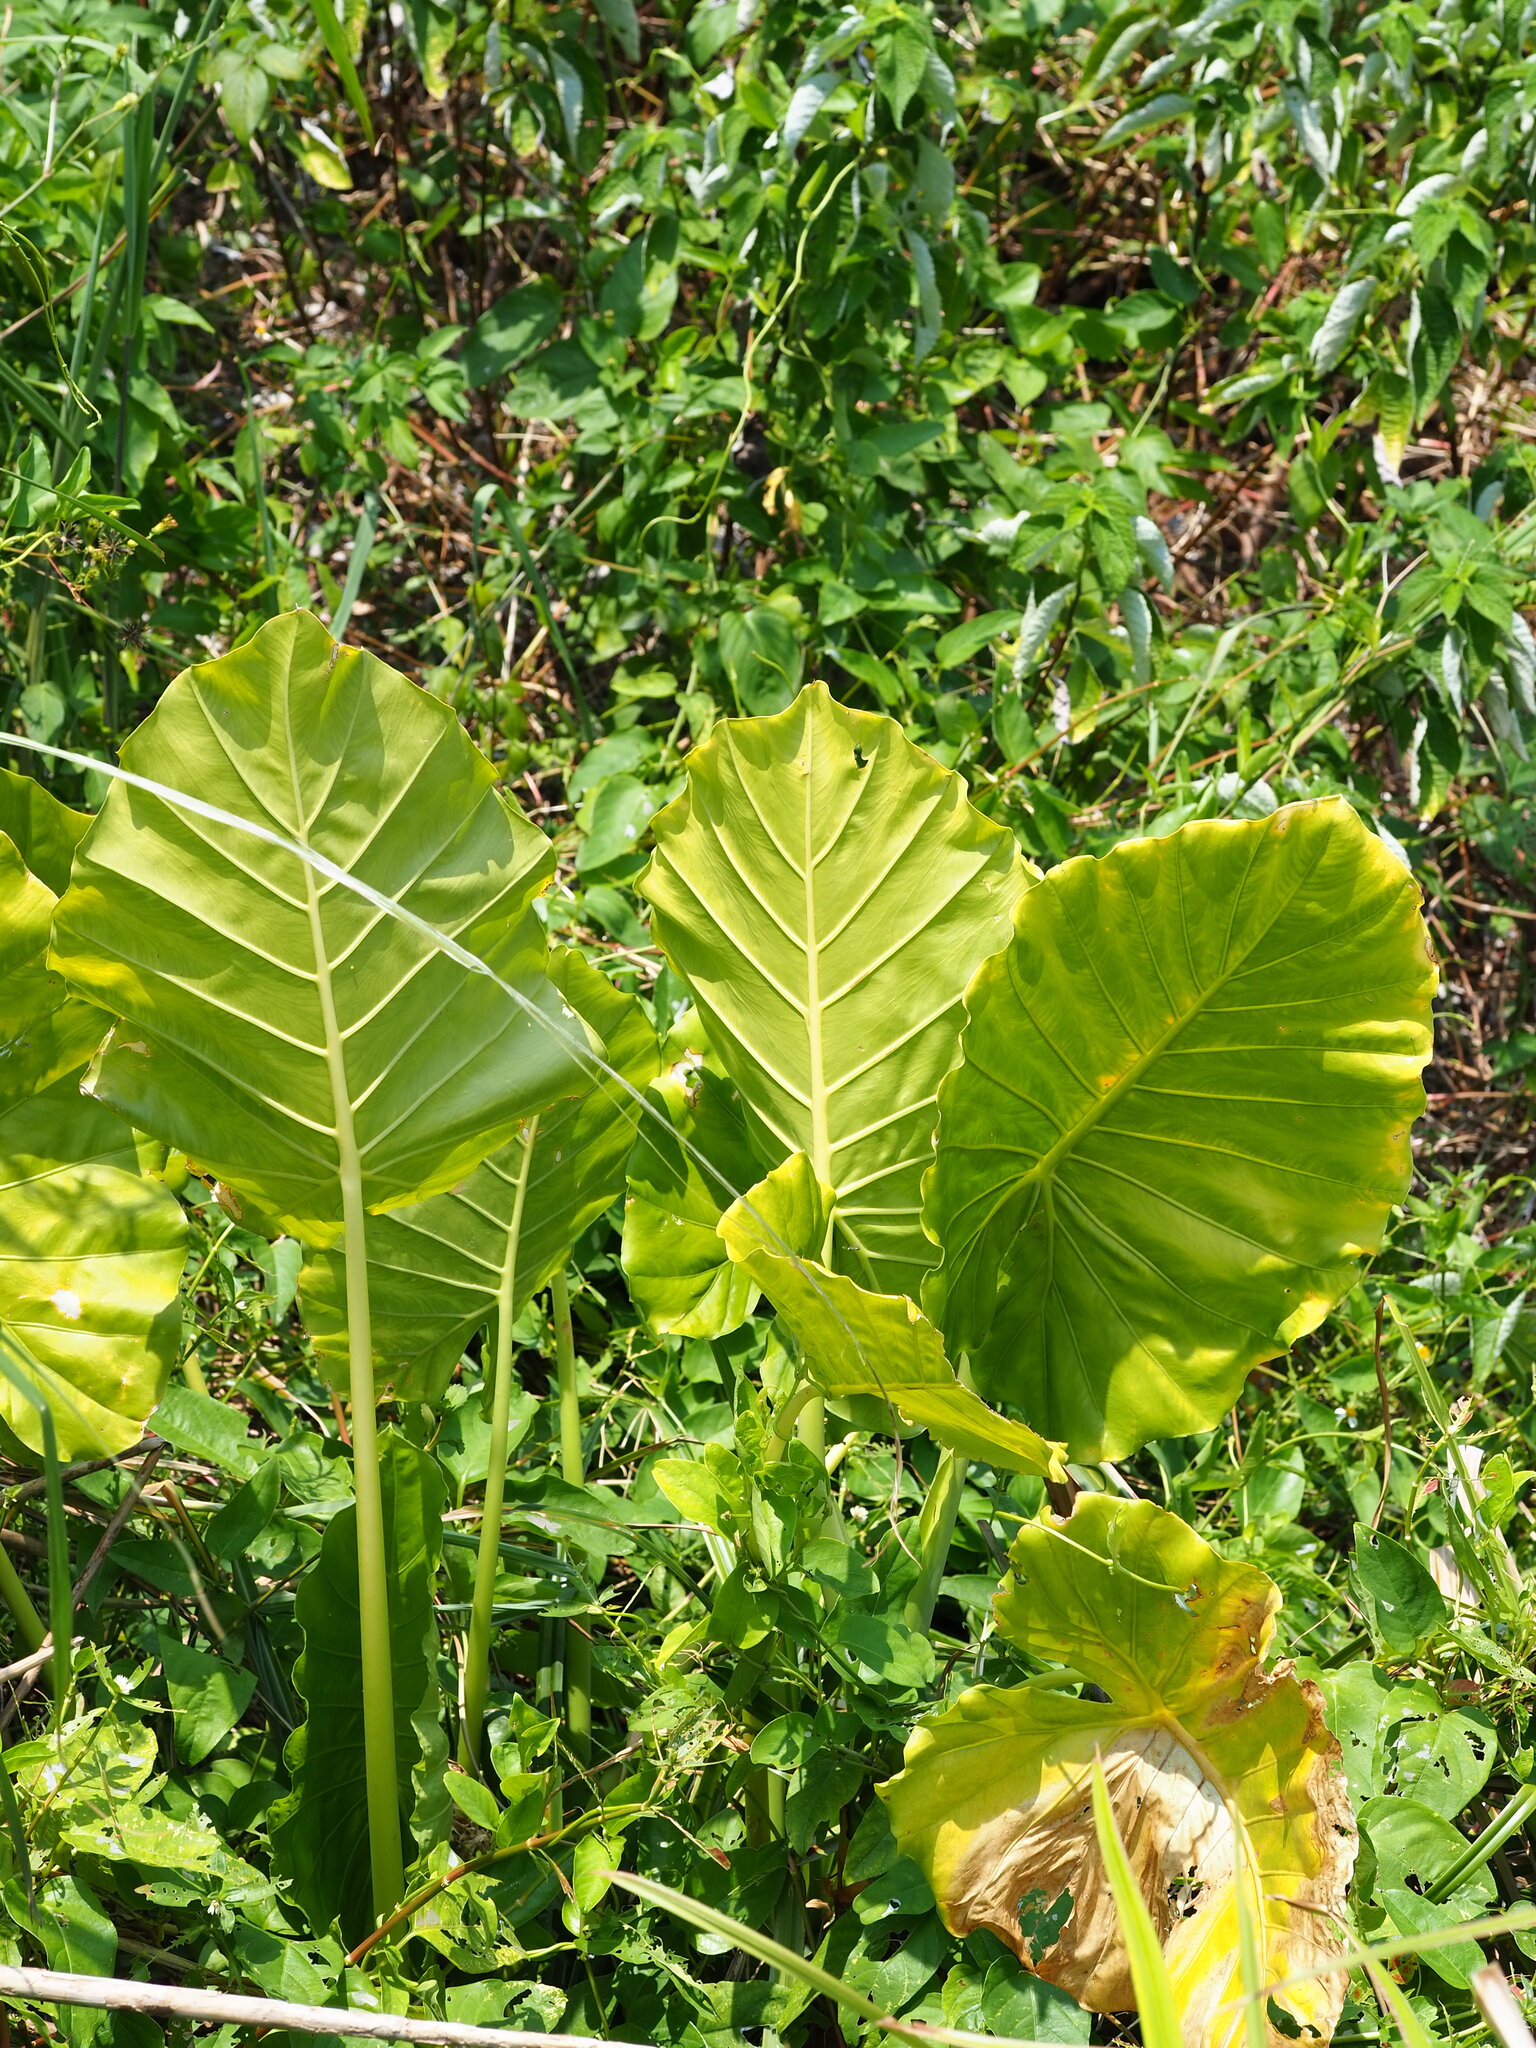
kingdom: Plantae
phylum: Tracheophyta
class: Liliopsida
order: Alismatales
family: Araceae
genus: Alocasia
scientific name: Alocasia odora
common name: Asian taro
